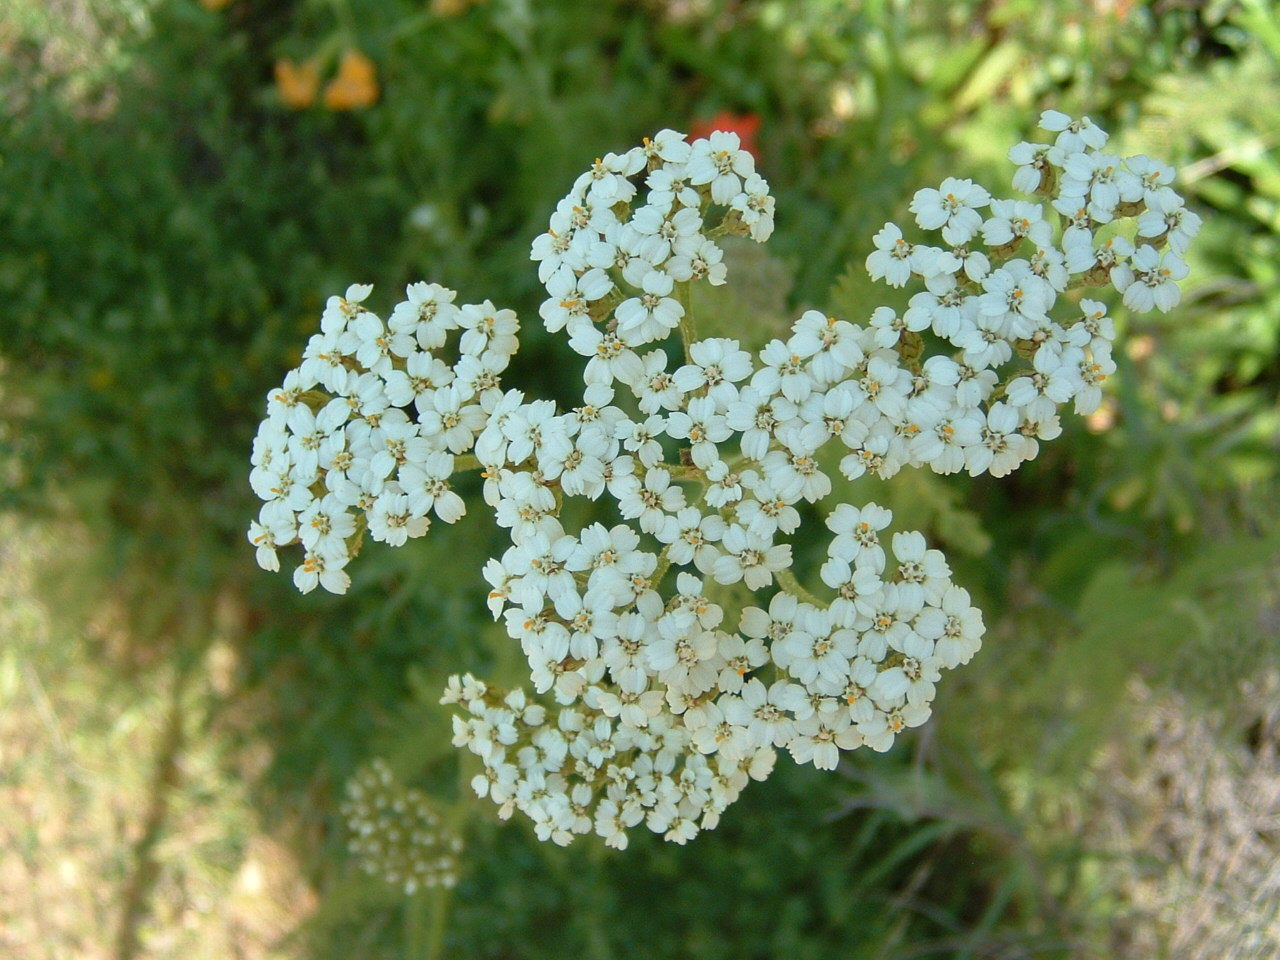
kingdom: Plantae
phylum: Tracheophyta
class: Magnoliopsida
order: Asterales
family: Asteraceae
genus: Achillea
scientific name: Achillea millefolium
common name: Yarrow
